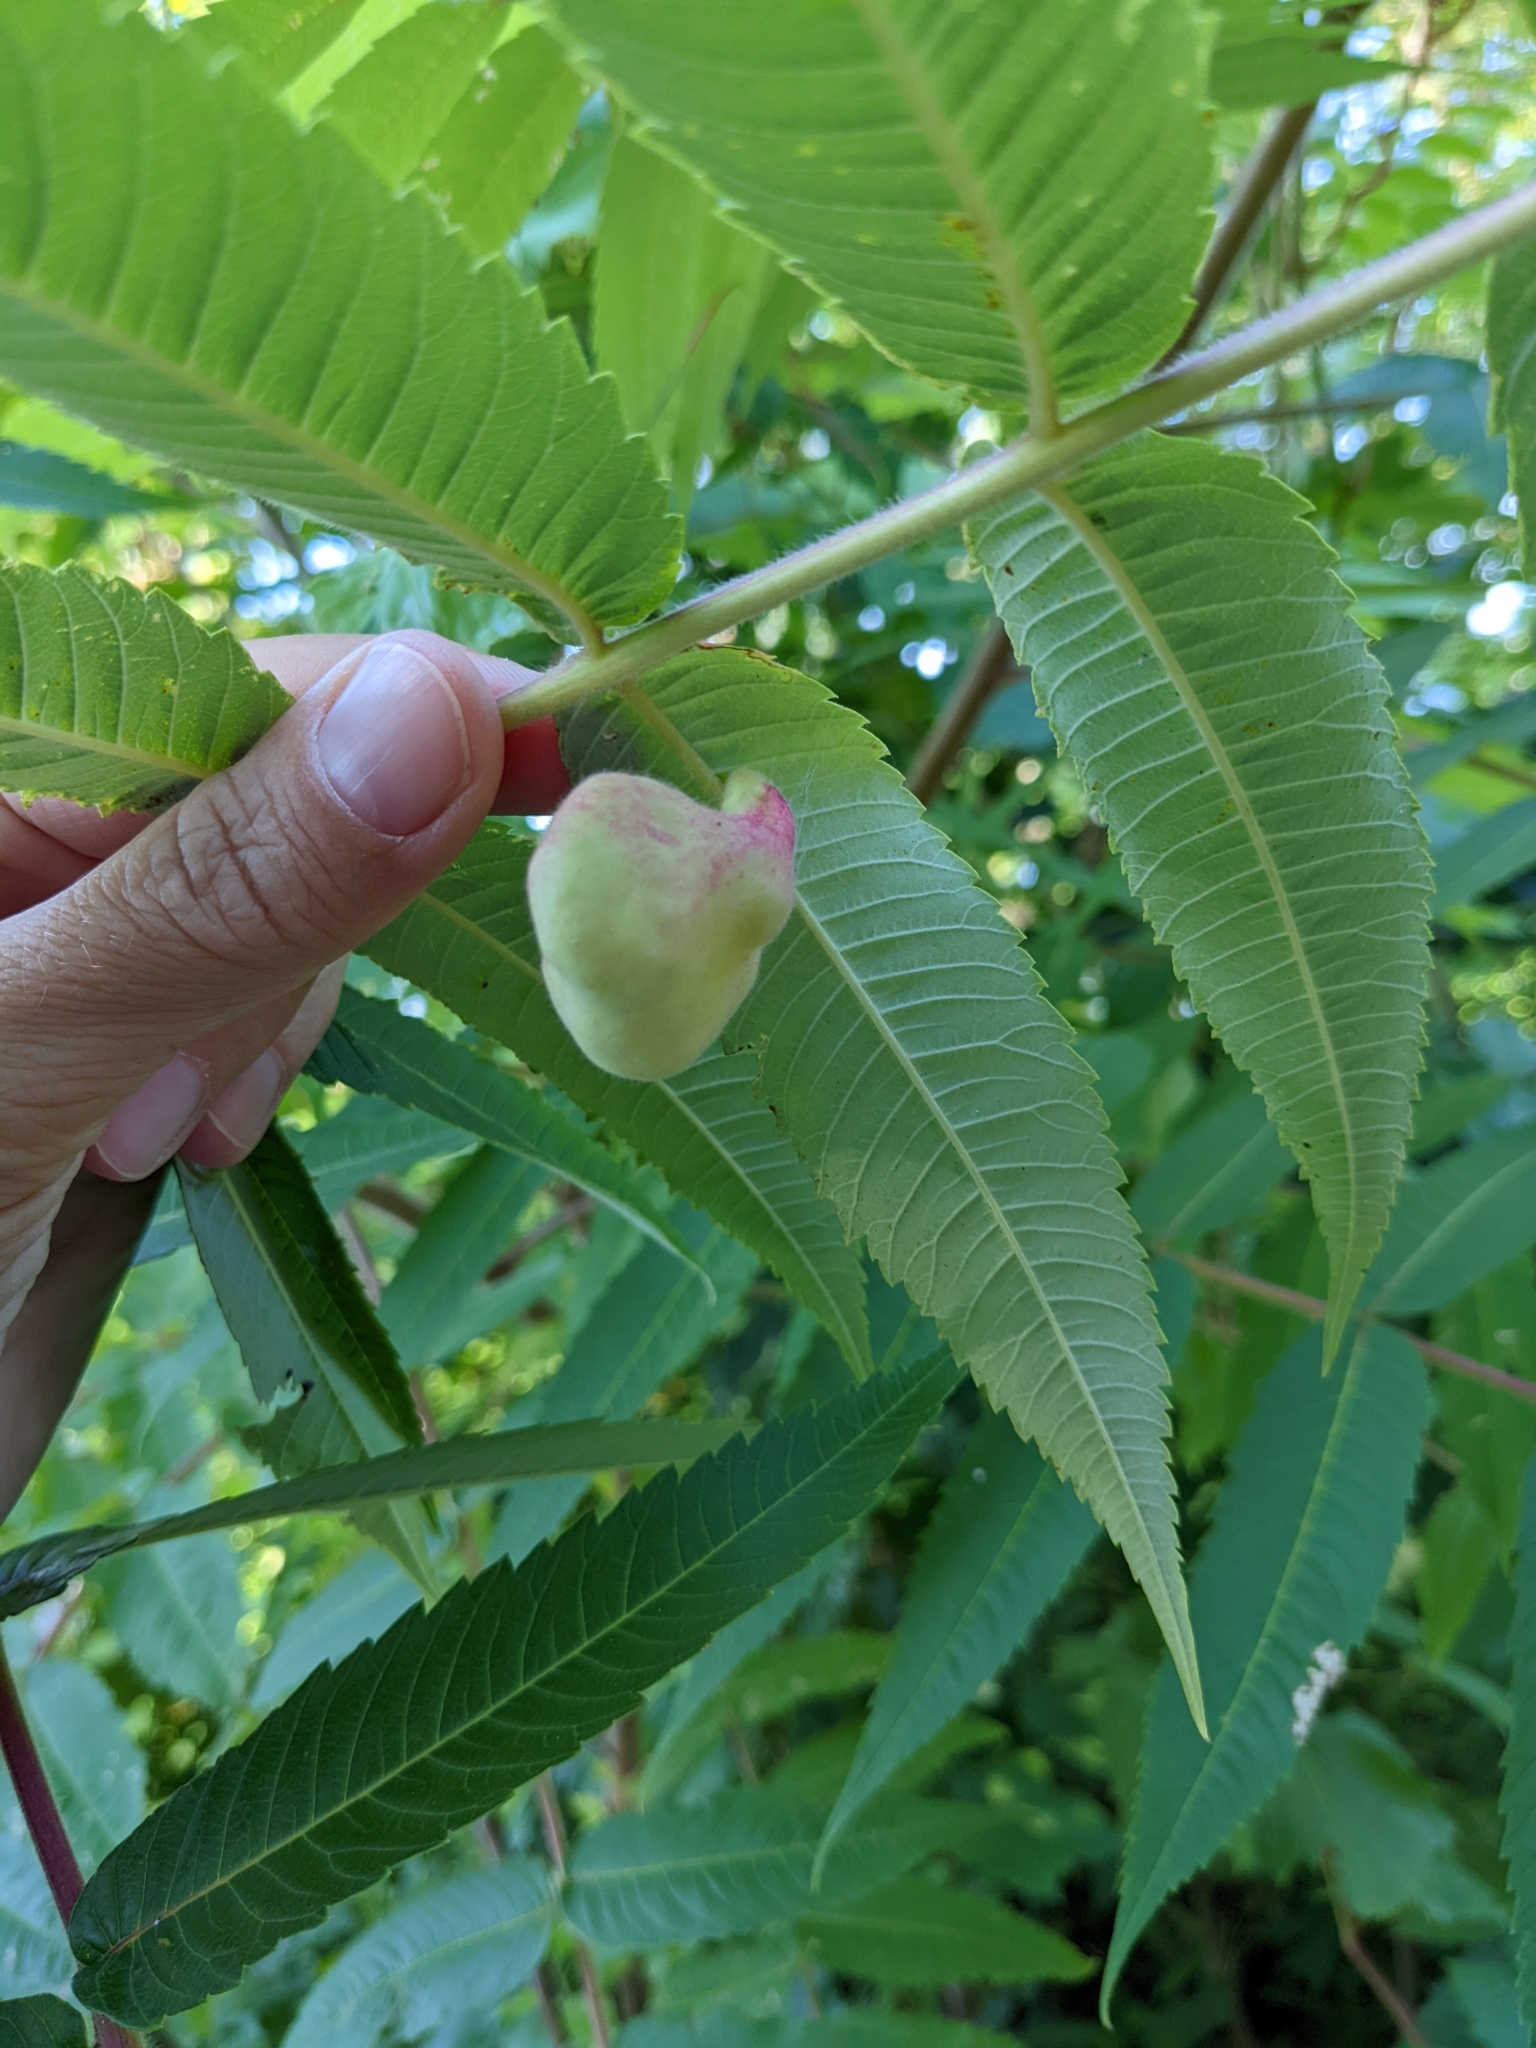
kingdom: Animalia
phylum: Arthropoda
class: Insecta
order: Hemiptera
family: Aphididae
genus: Melaphis
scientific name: Melaphis rhois
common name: Sumac gall aphid
